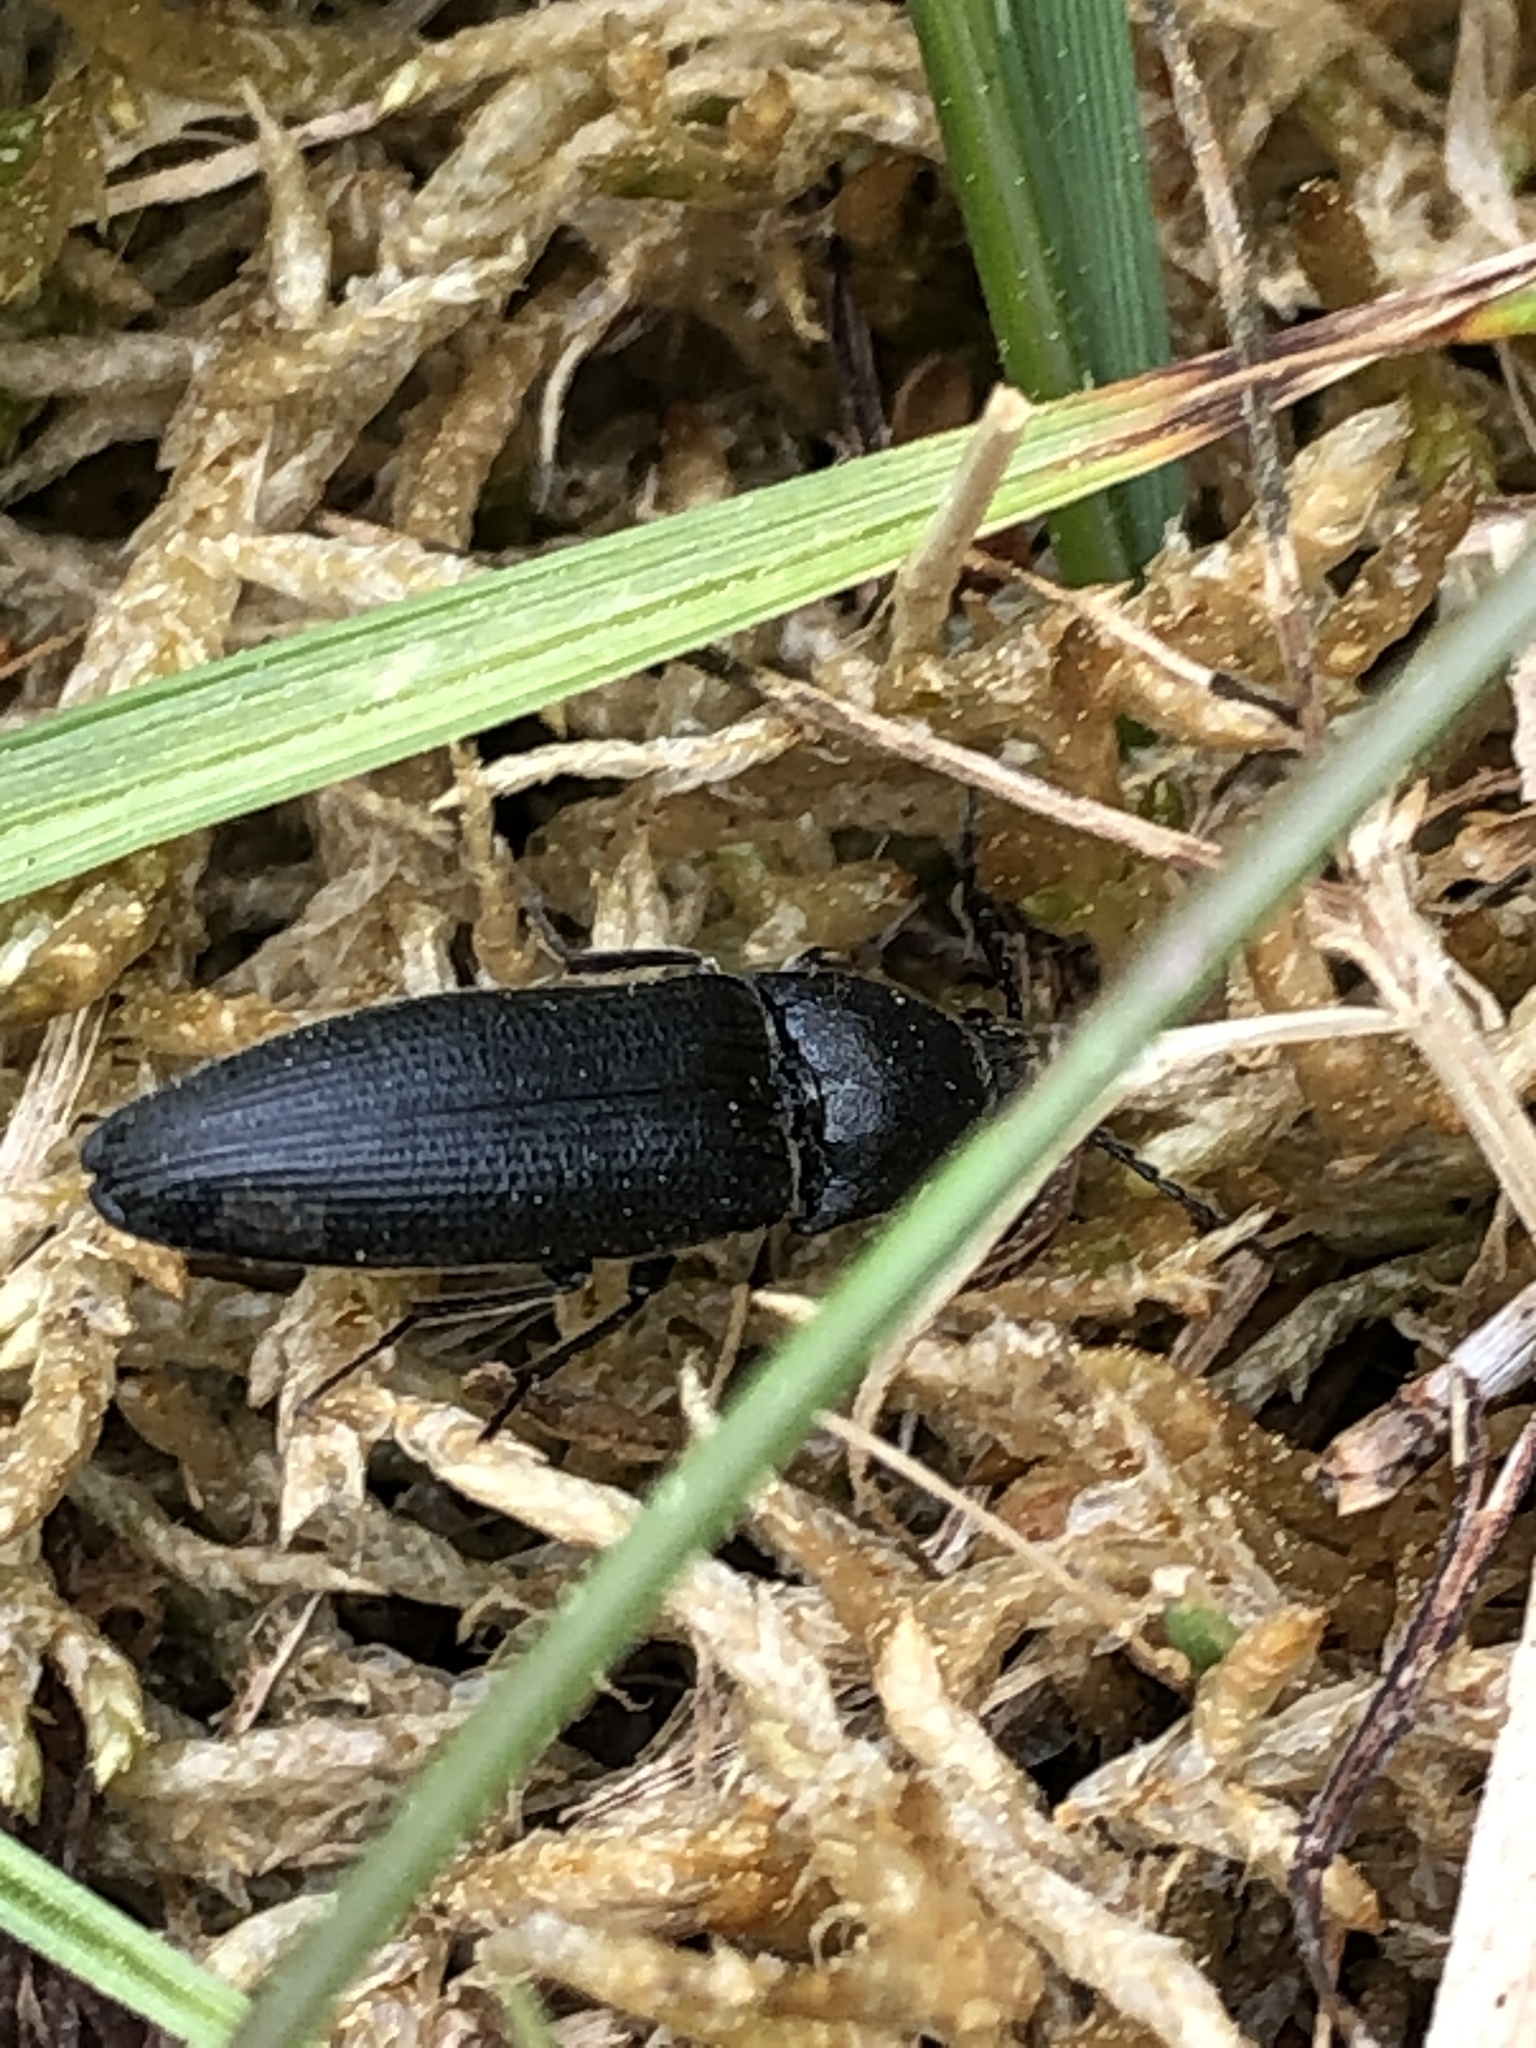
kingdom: Animalia
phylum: Arthropoda
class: Insecta
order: Coleoptera
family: Elateridae
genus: Melanotus
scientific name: Melanotus punctolineatus
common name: Sandwich click beetle
